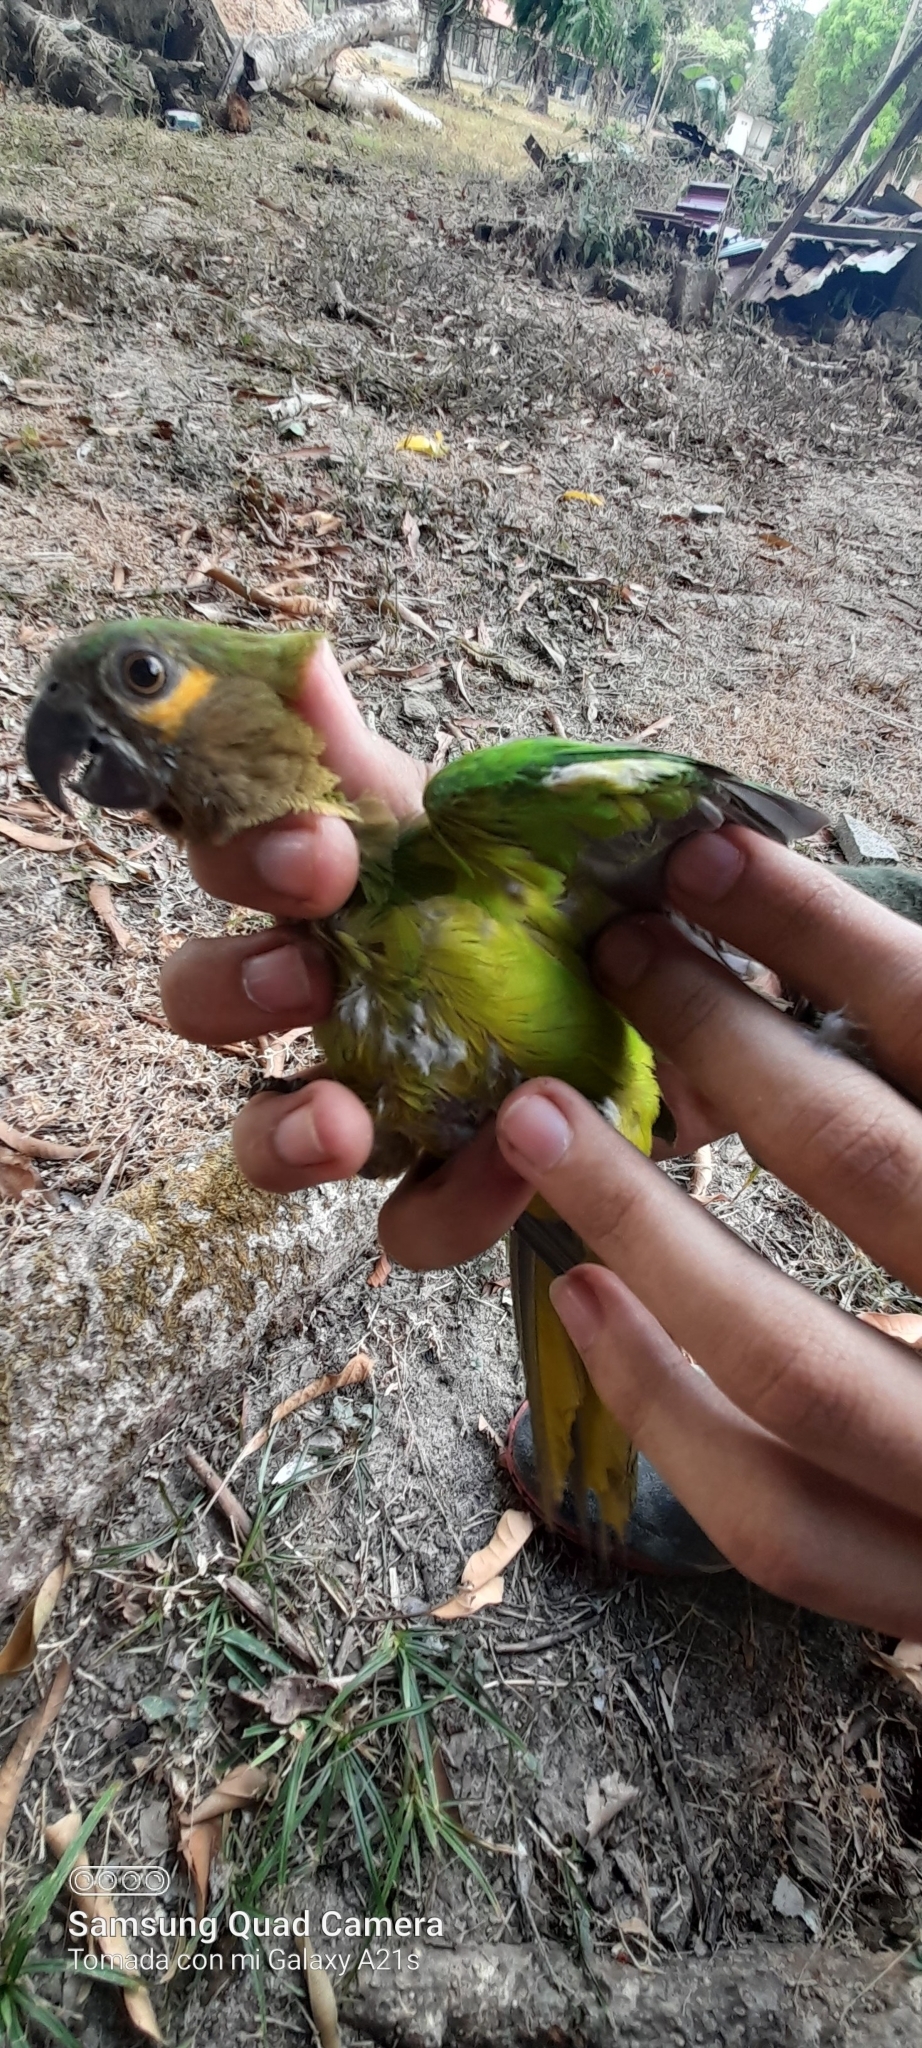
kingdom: Animalia
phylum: Chordata
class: Aves
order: Psittaciformes
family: Psittacidae
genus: Aratinga
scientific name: Aratinga pertinax
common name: Brown-throated parakeet
